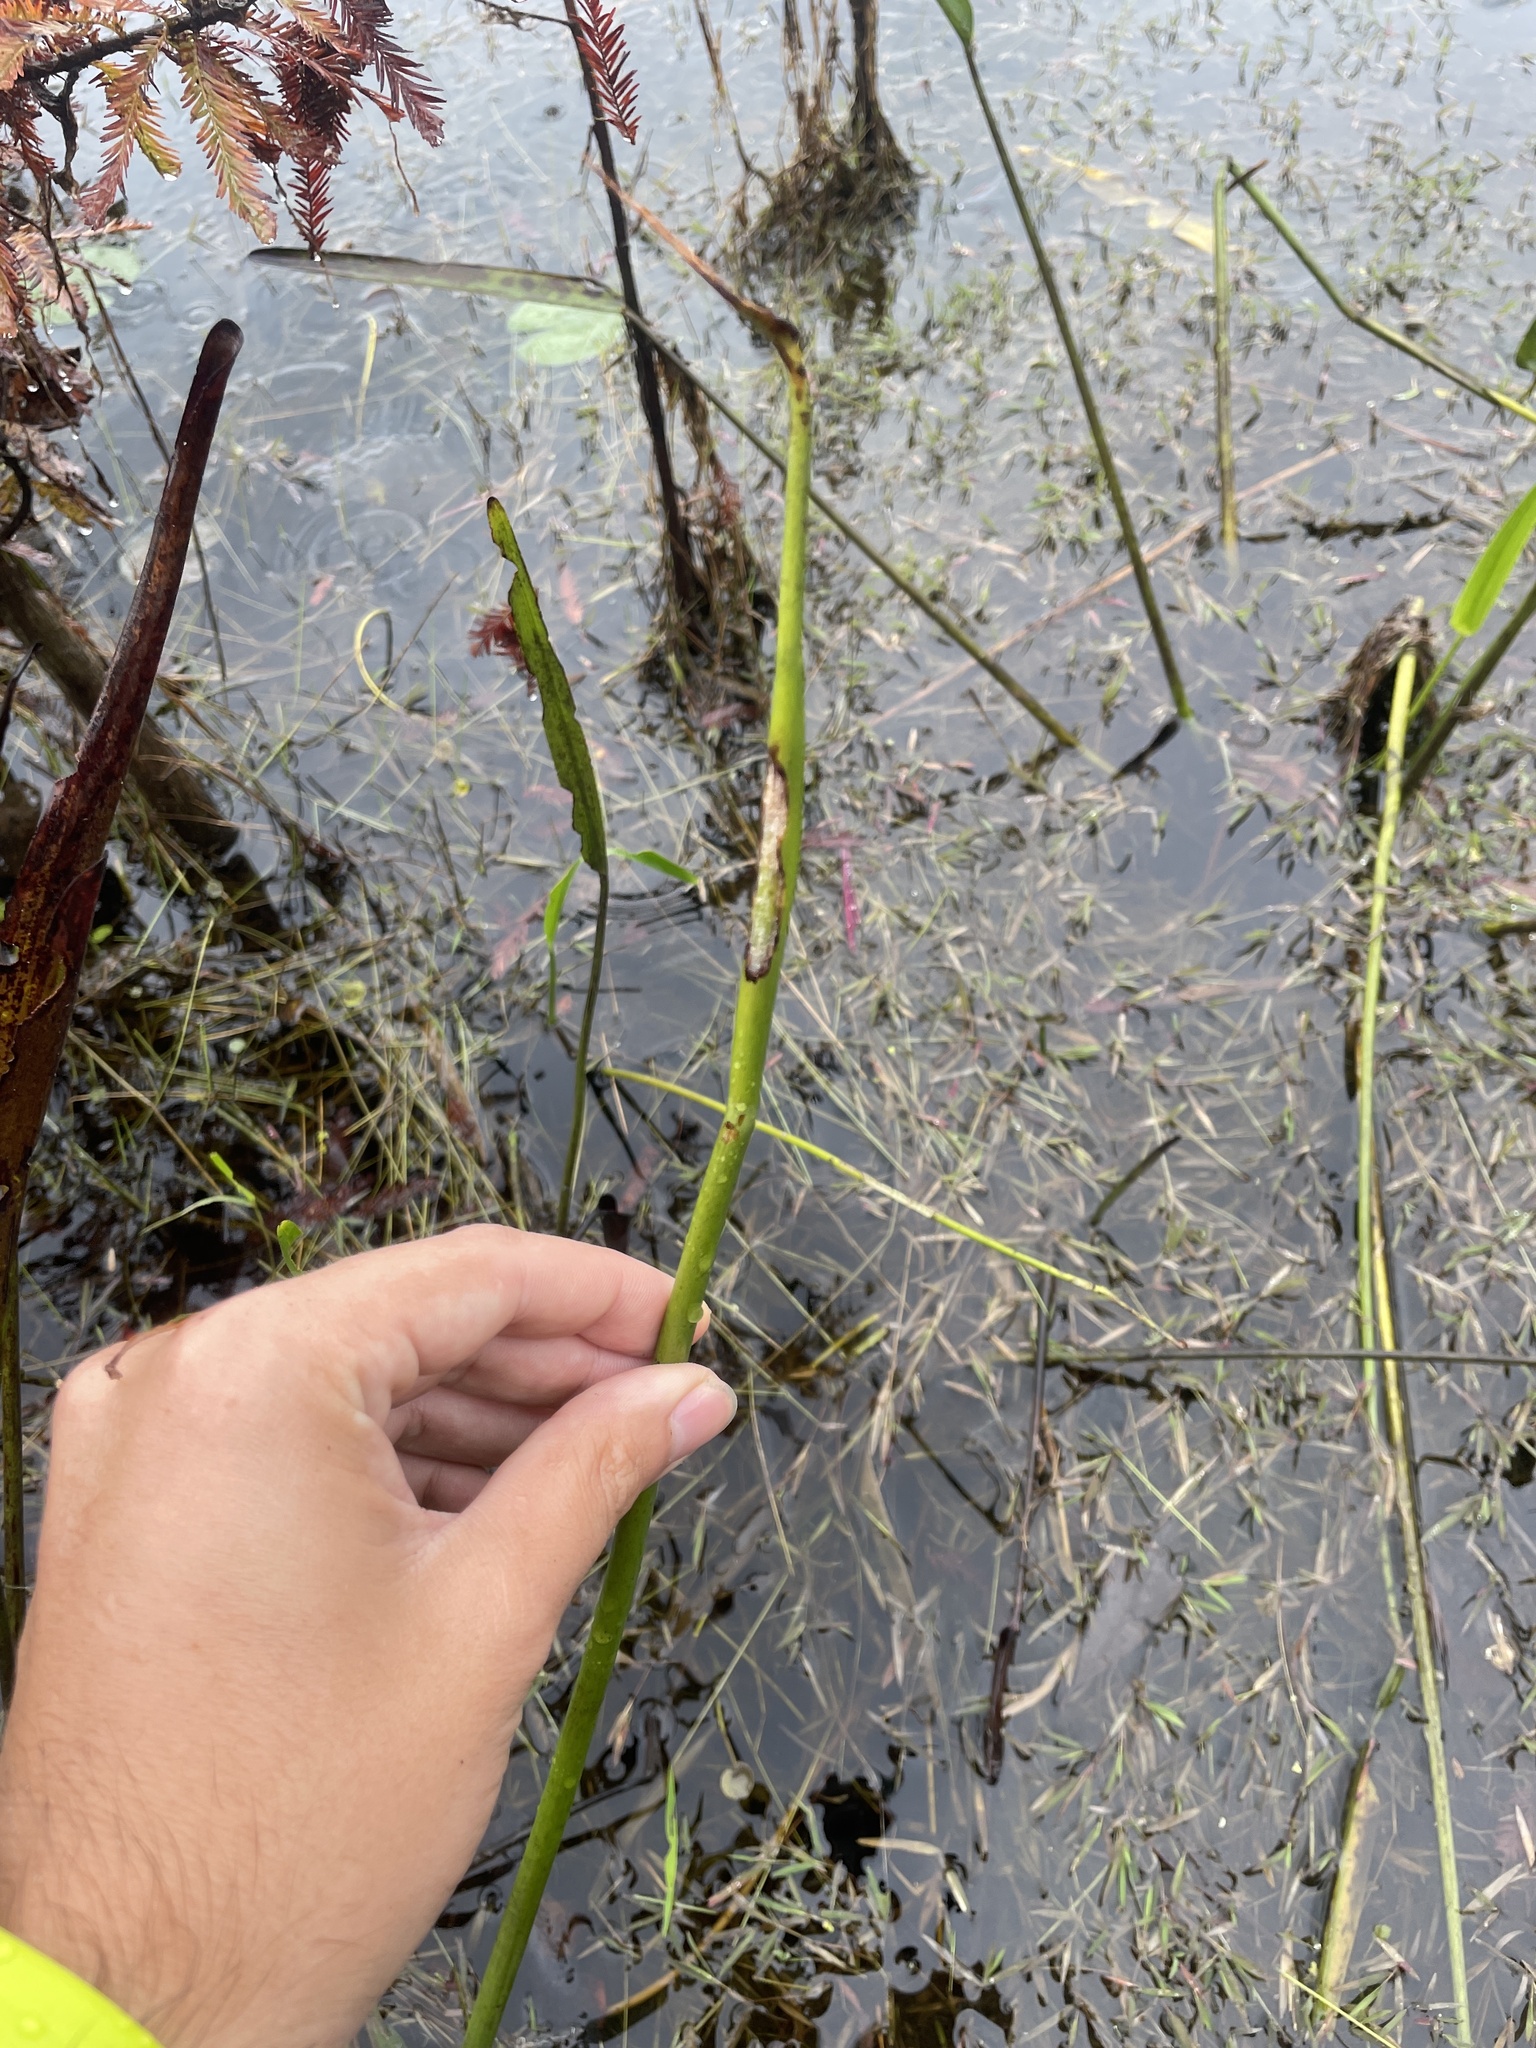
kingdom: Plantae
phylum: Tracheophyta
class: Liliopsida
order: Commelinales
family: Pontederiaceae
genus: Pontederia
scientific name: Pontederia cordata
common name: Pickerelweed
